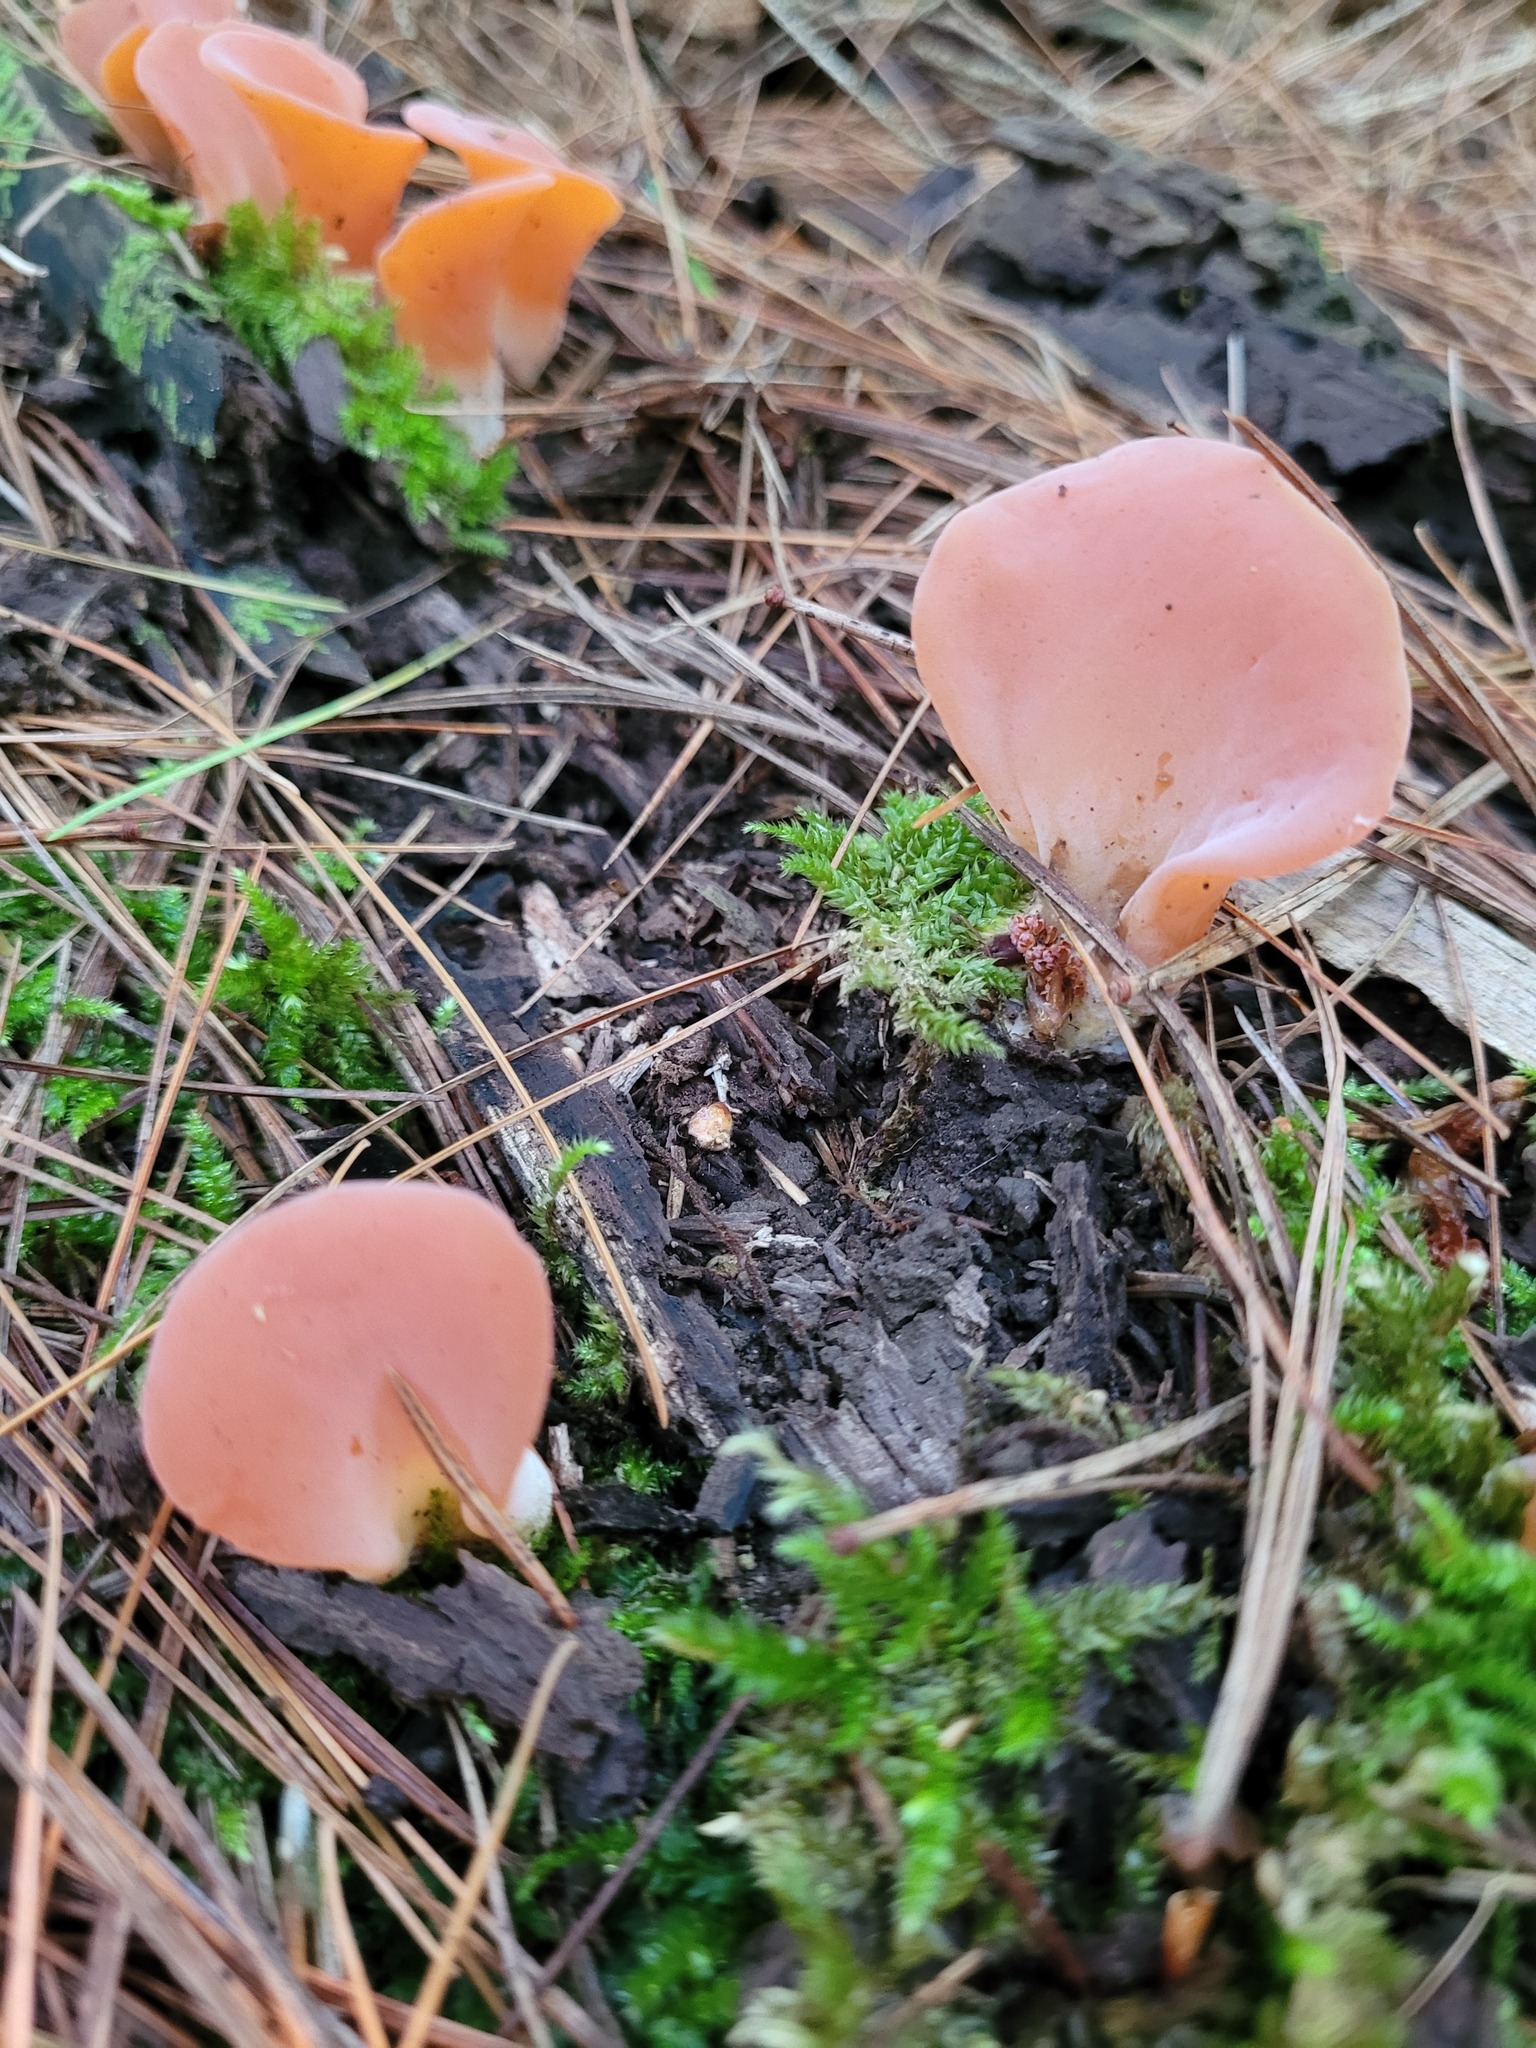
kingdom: Fungi
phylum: Basidiomycota
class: Agaricomycetes
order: Auriculariales
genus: Guepinia
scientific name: Guepinia helvelloides
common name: Salmon salad
